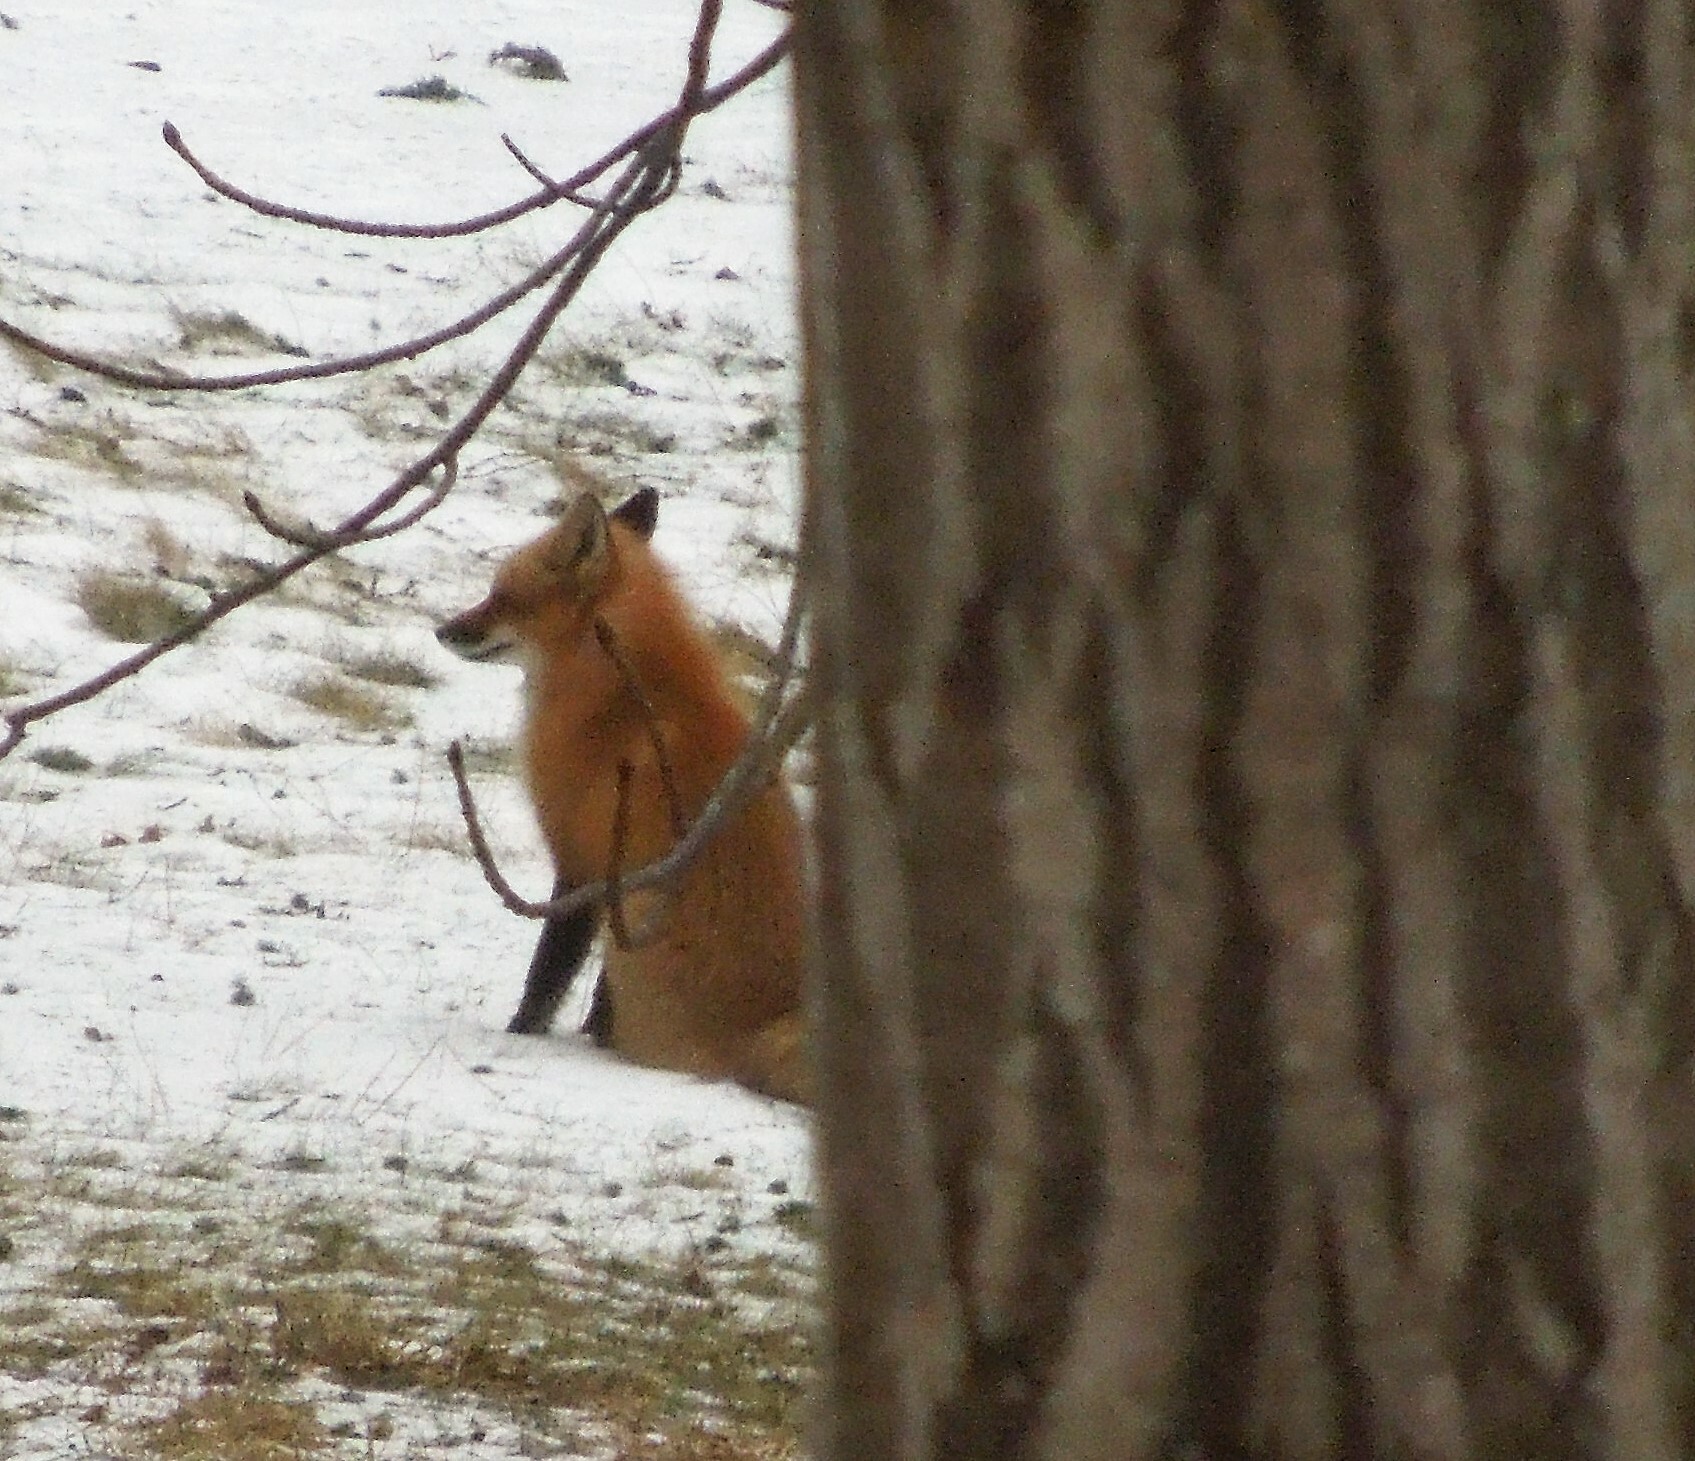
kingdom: Animalia
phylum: Chordata
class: Mammalia
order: Carnivora
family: Canidae
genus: Vulpes
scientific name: Vulpes vulpes
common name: Red fox
